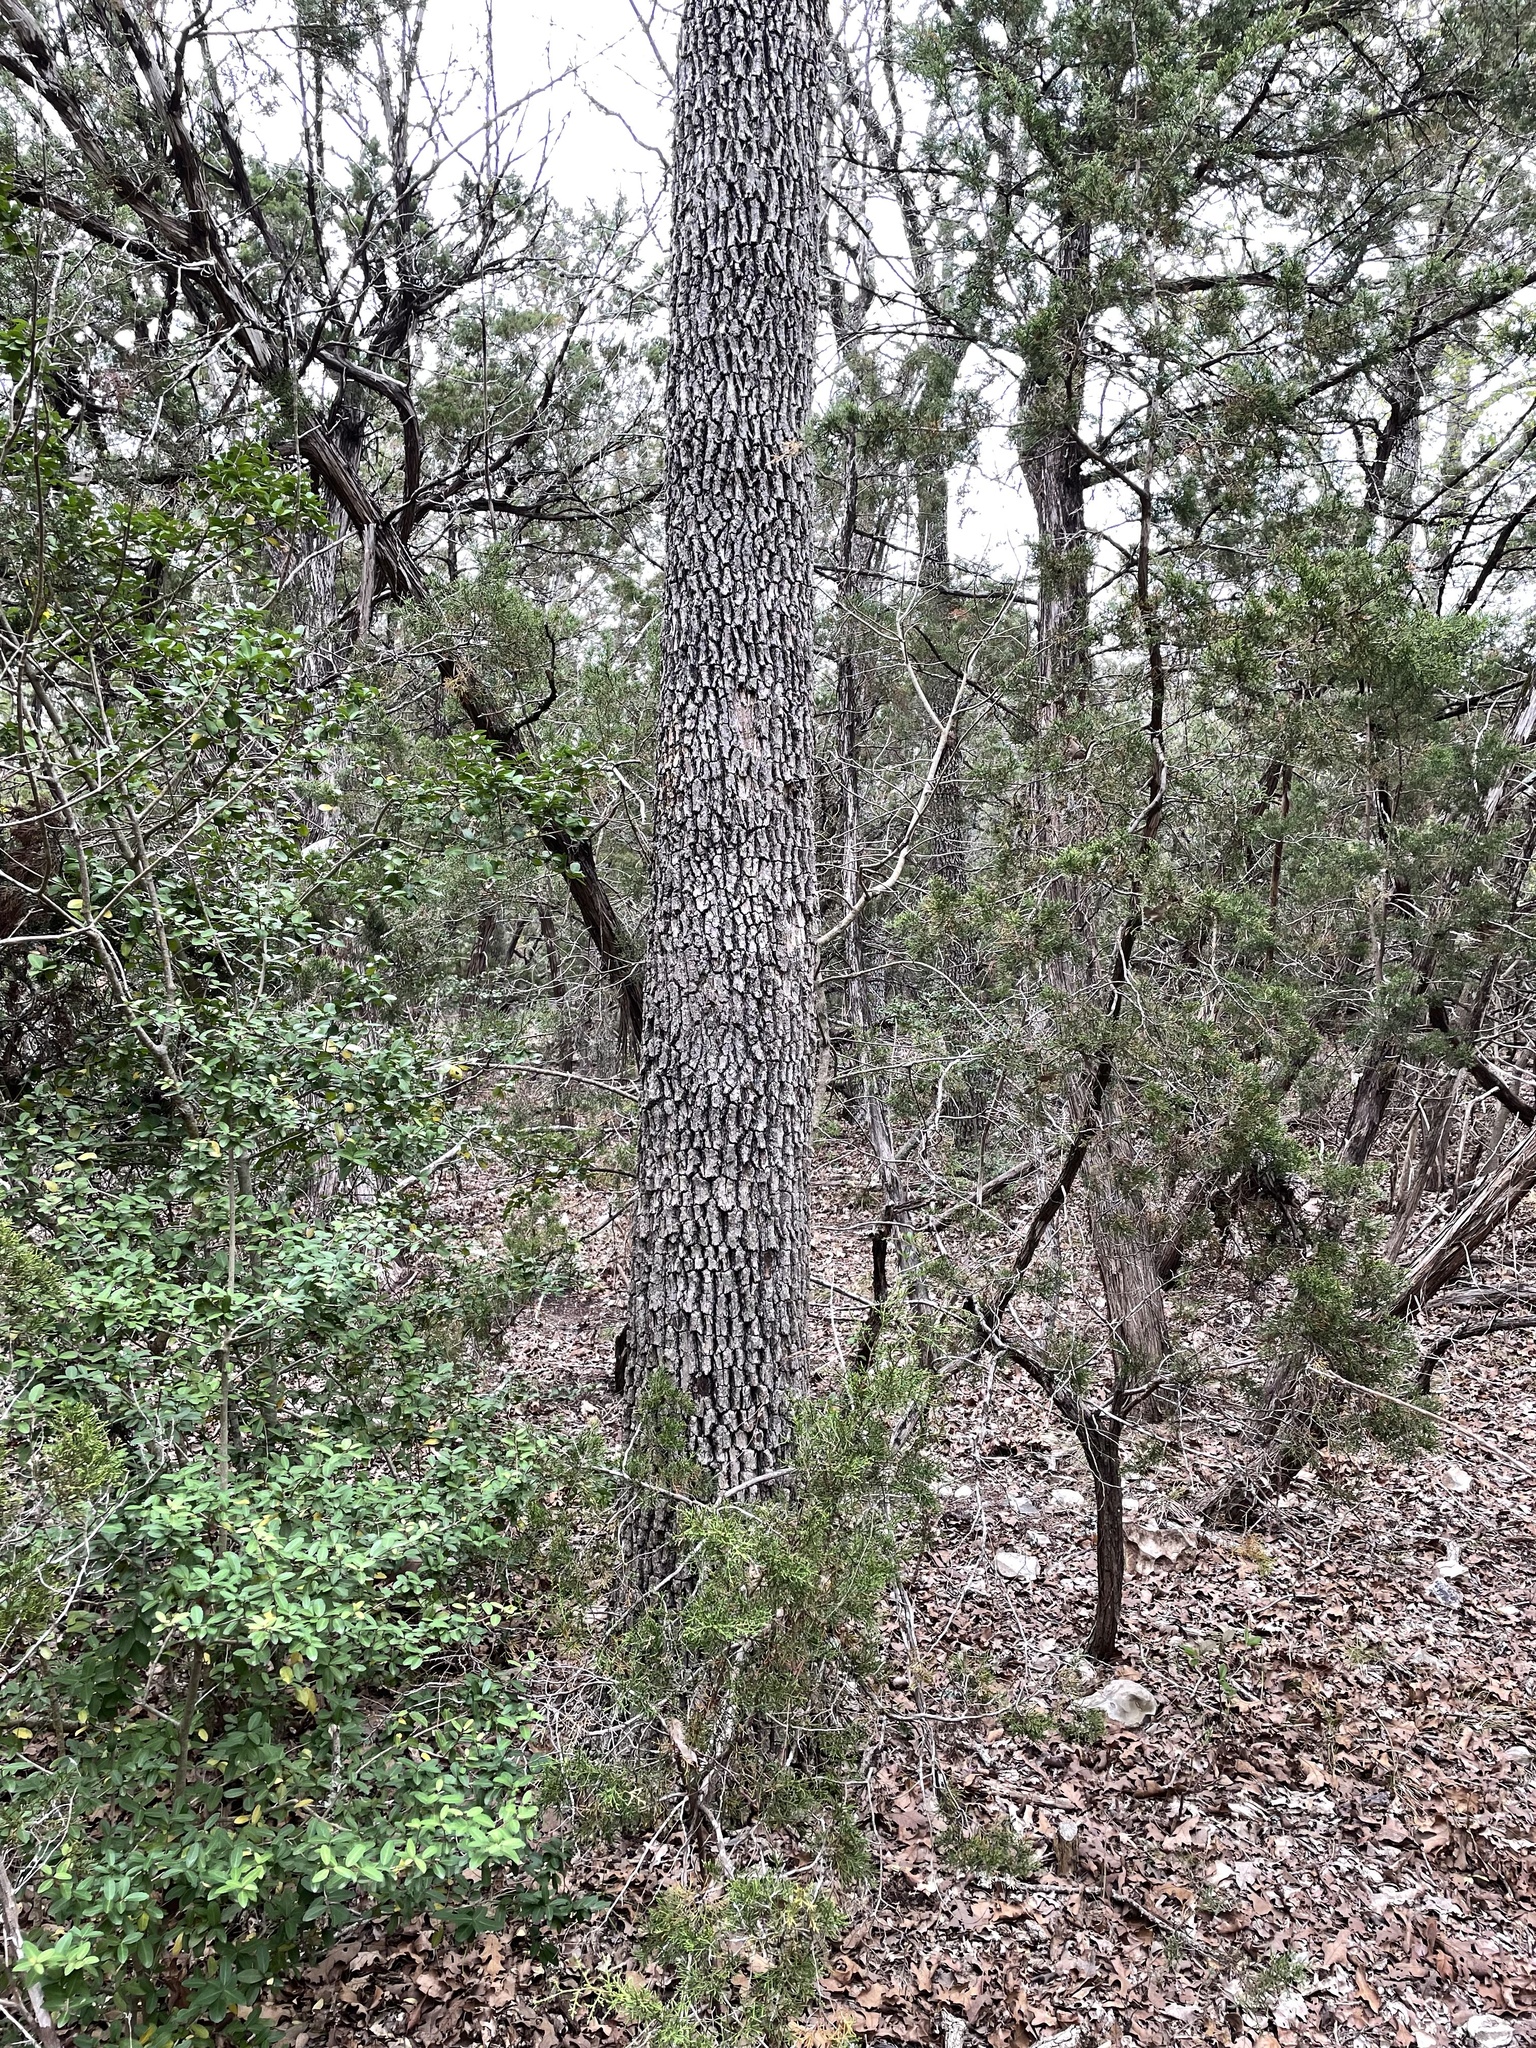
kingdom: Plantae
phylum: Tracheophyta
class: Magnoliopsida
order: Fagales
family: Fagaceae
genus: Quercus
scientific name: Quercus stellata
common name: Post oak
